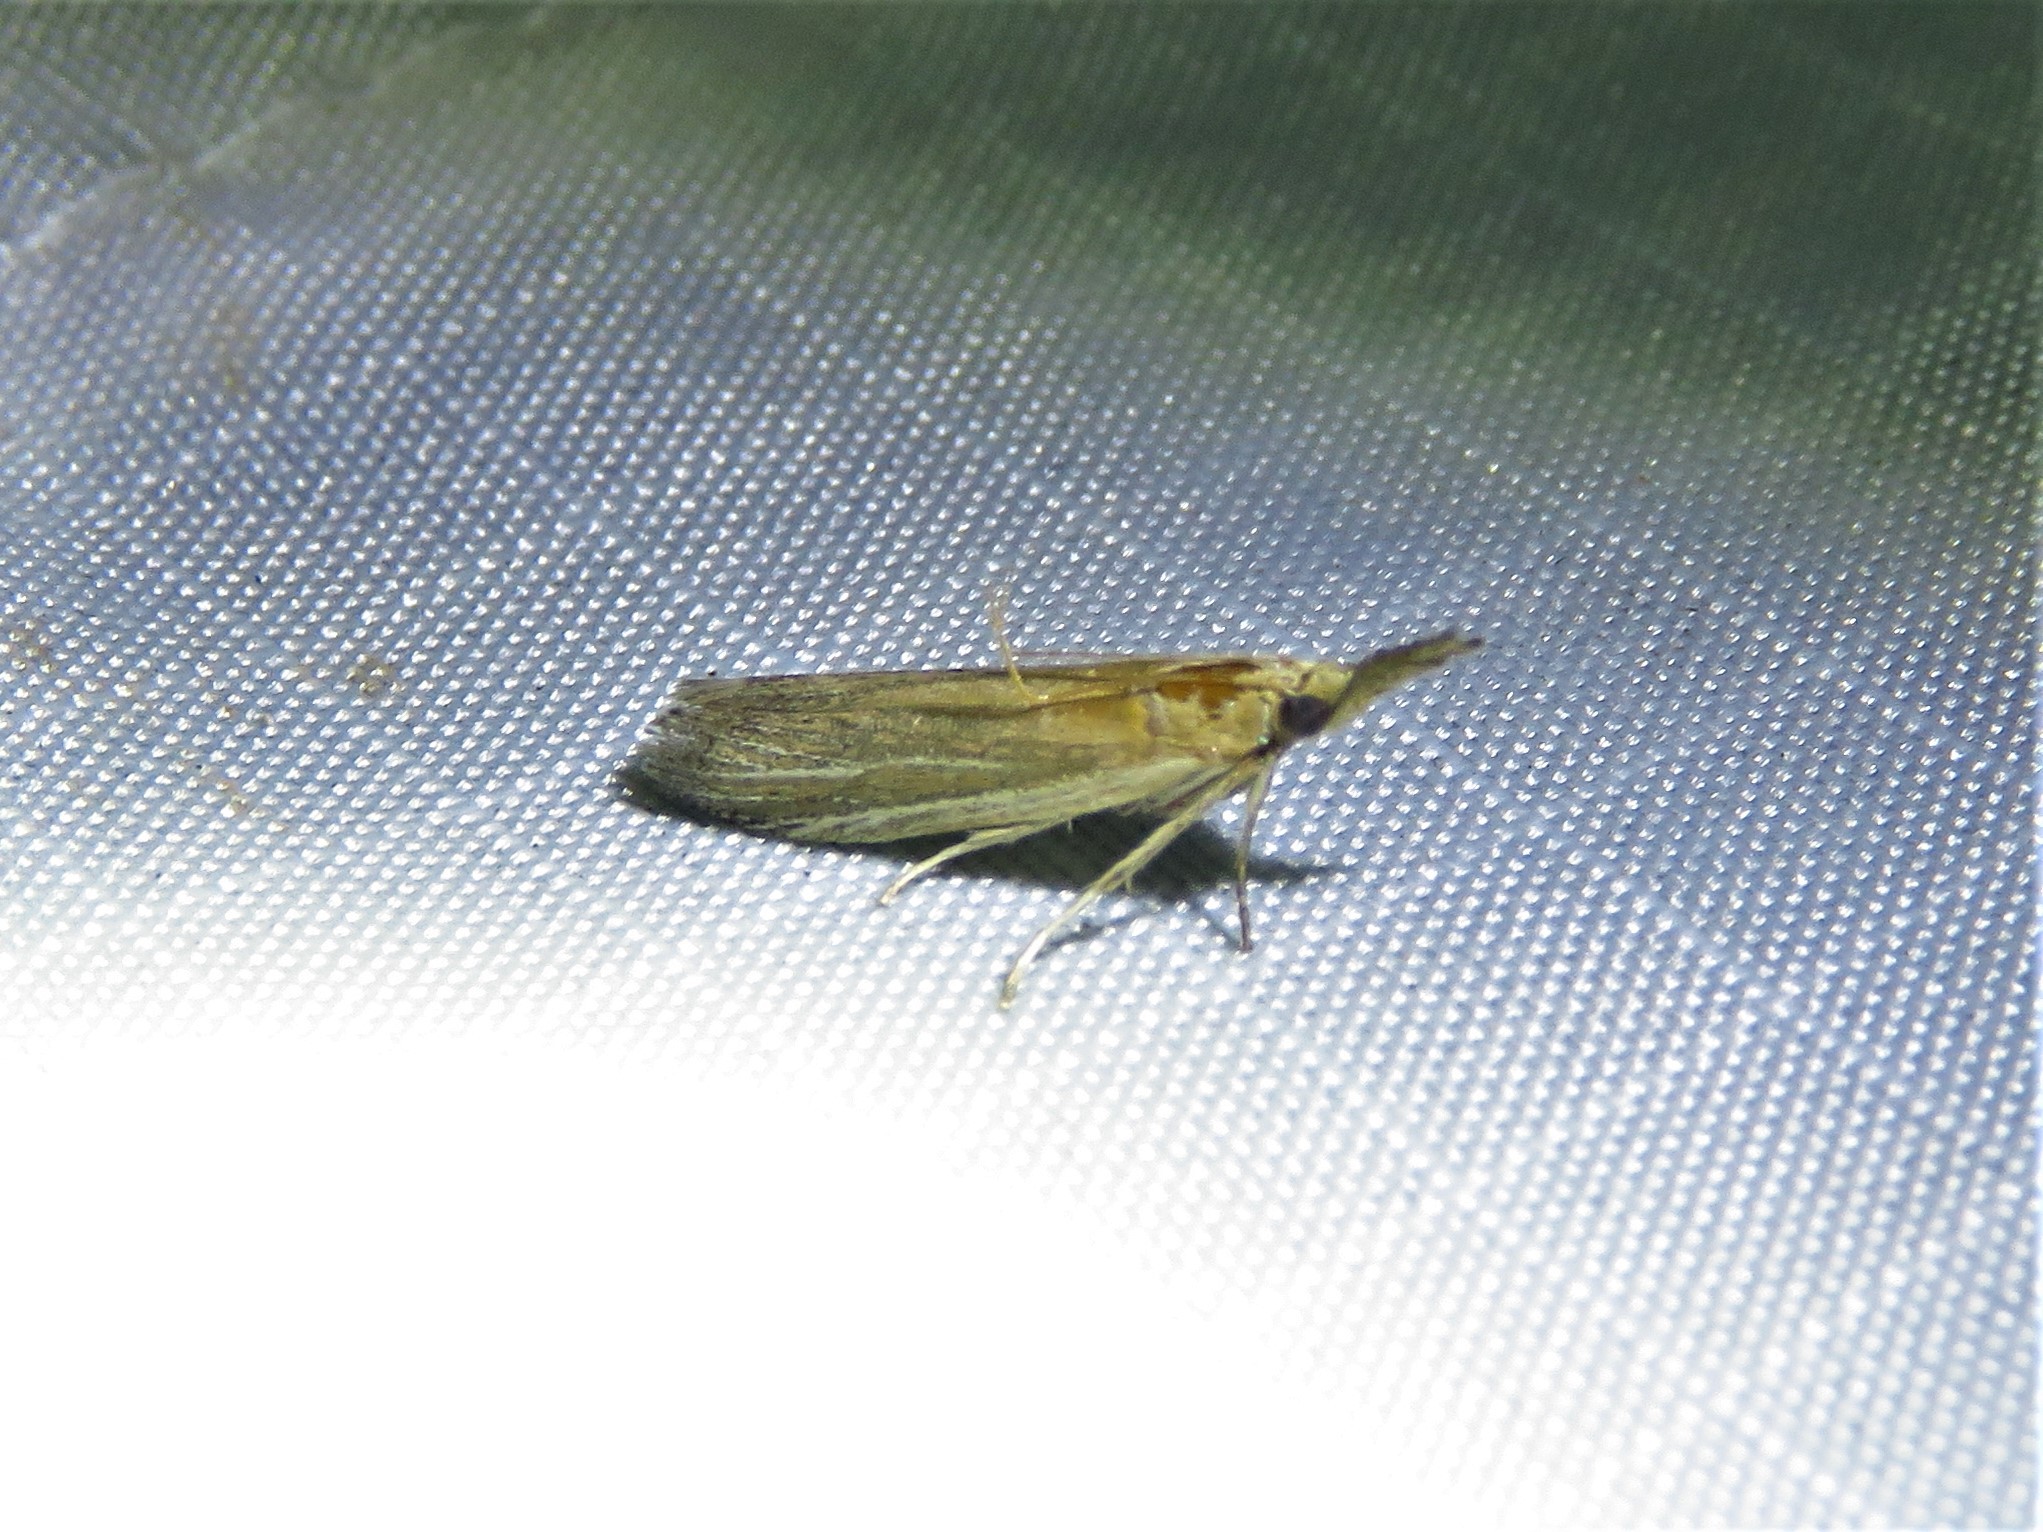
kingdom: Animalia
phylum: Arthropoda
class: Insecta
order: Lepidoptera
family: Pyralidae
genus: Peoria
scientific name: Peoria tetradella
